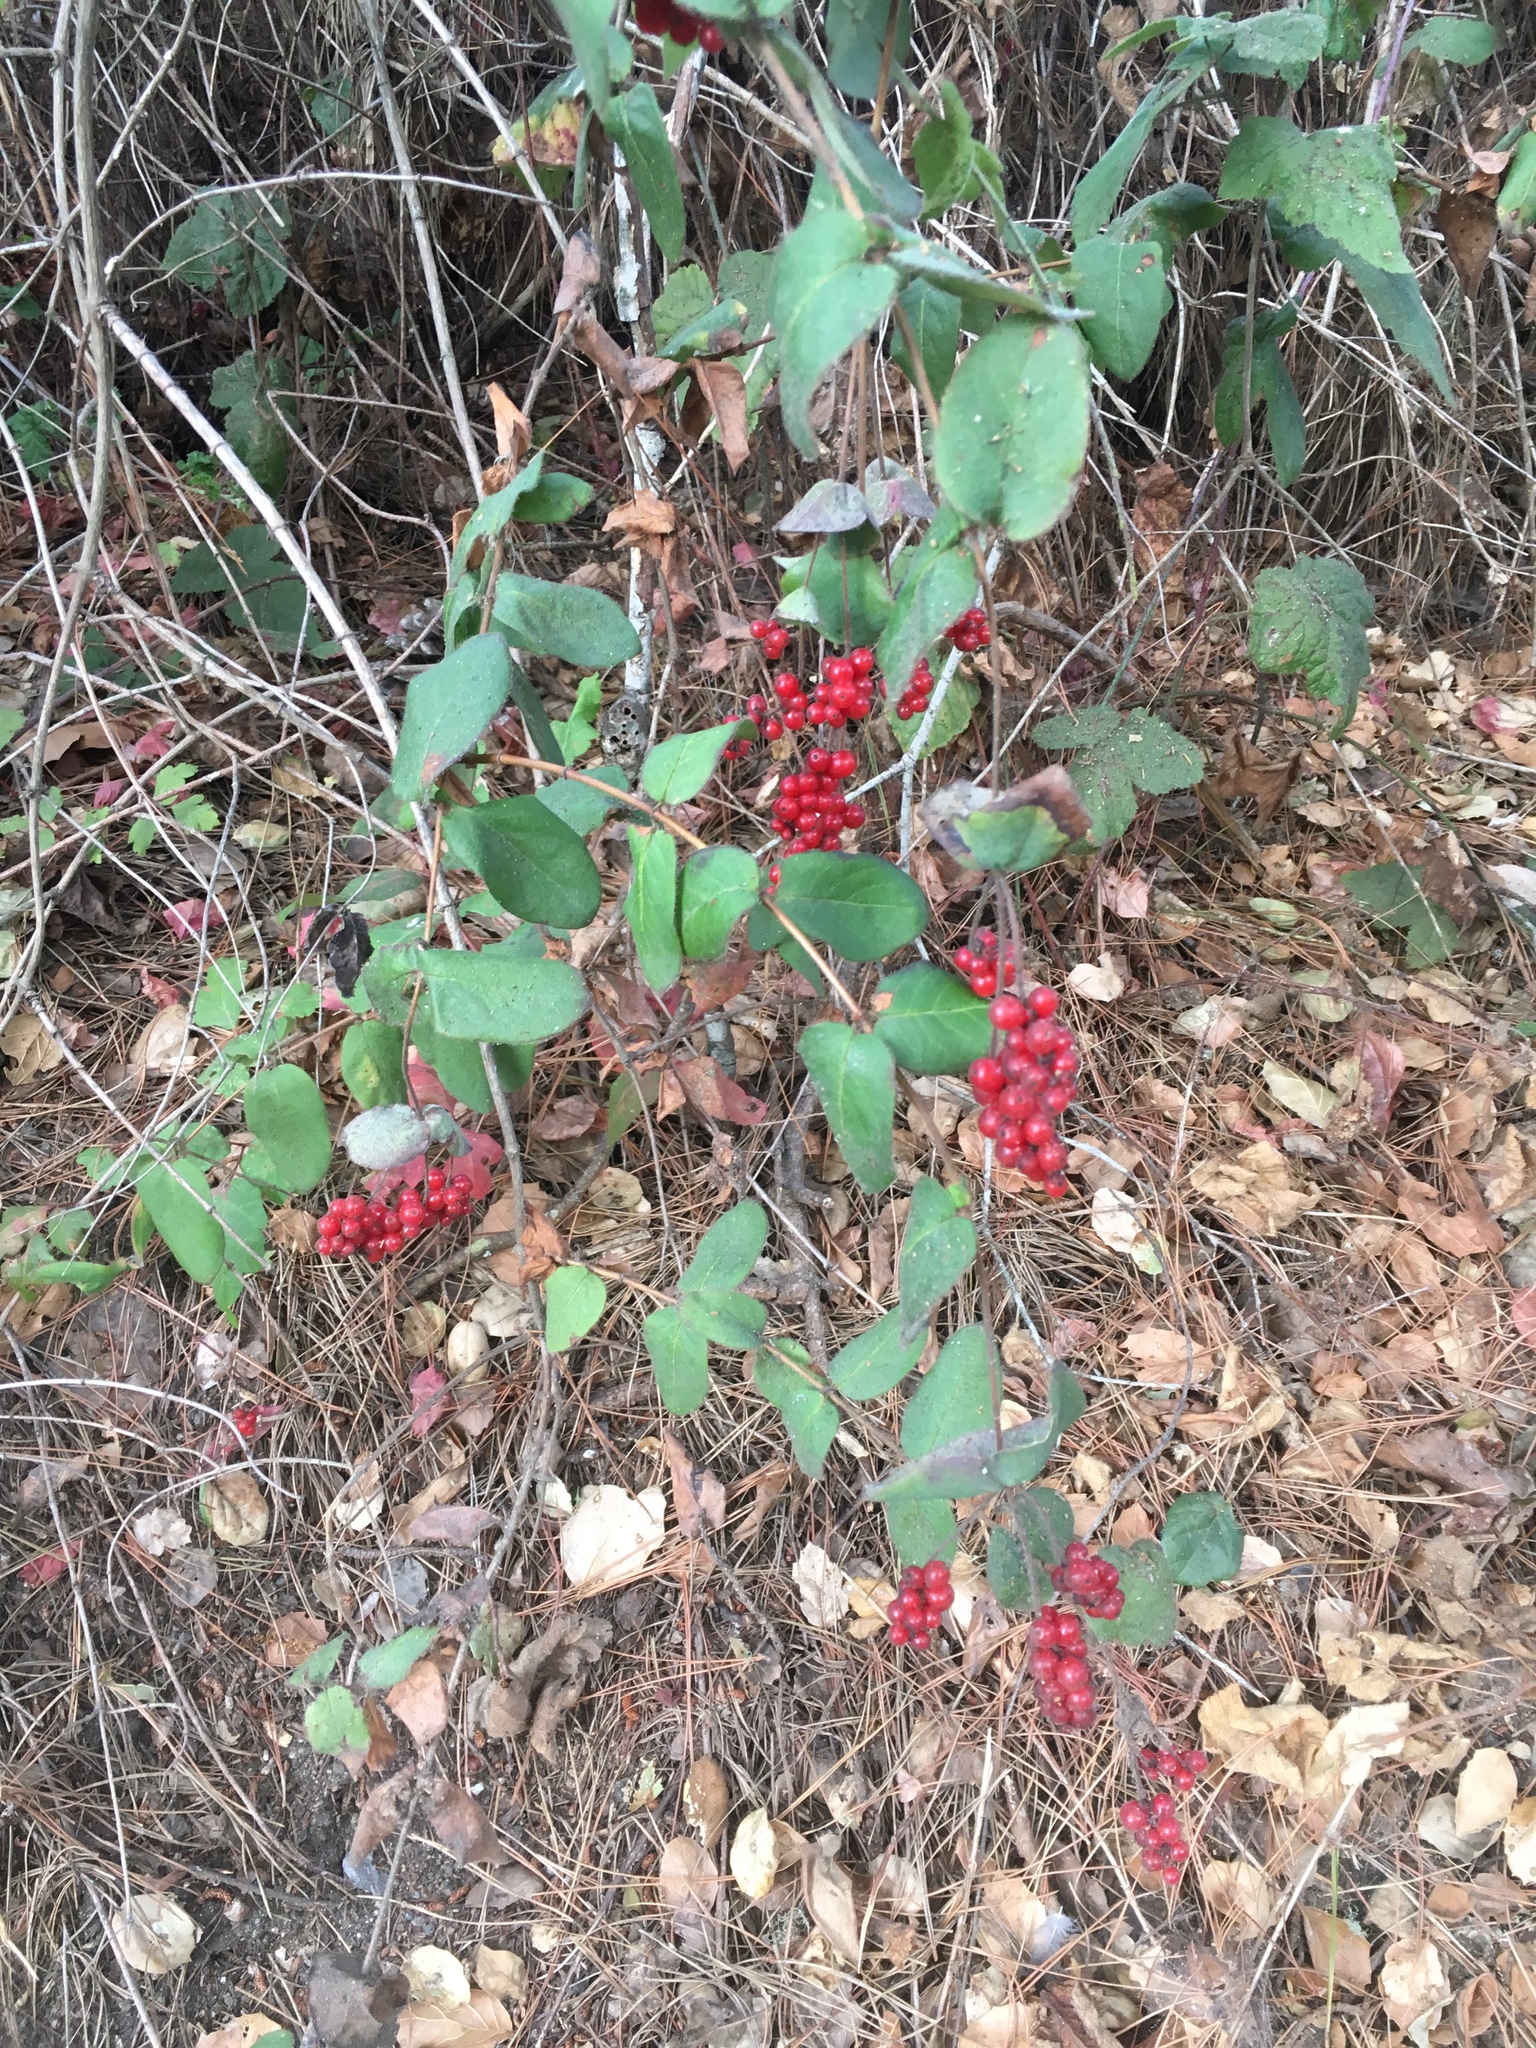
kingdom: Plantae
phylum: Tracheophyta
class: Magnoliopsida
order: Dipsacales
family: Caprifoliaceae
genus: Lonicera
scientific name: Lonicera hispidula
